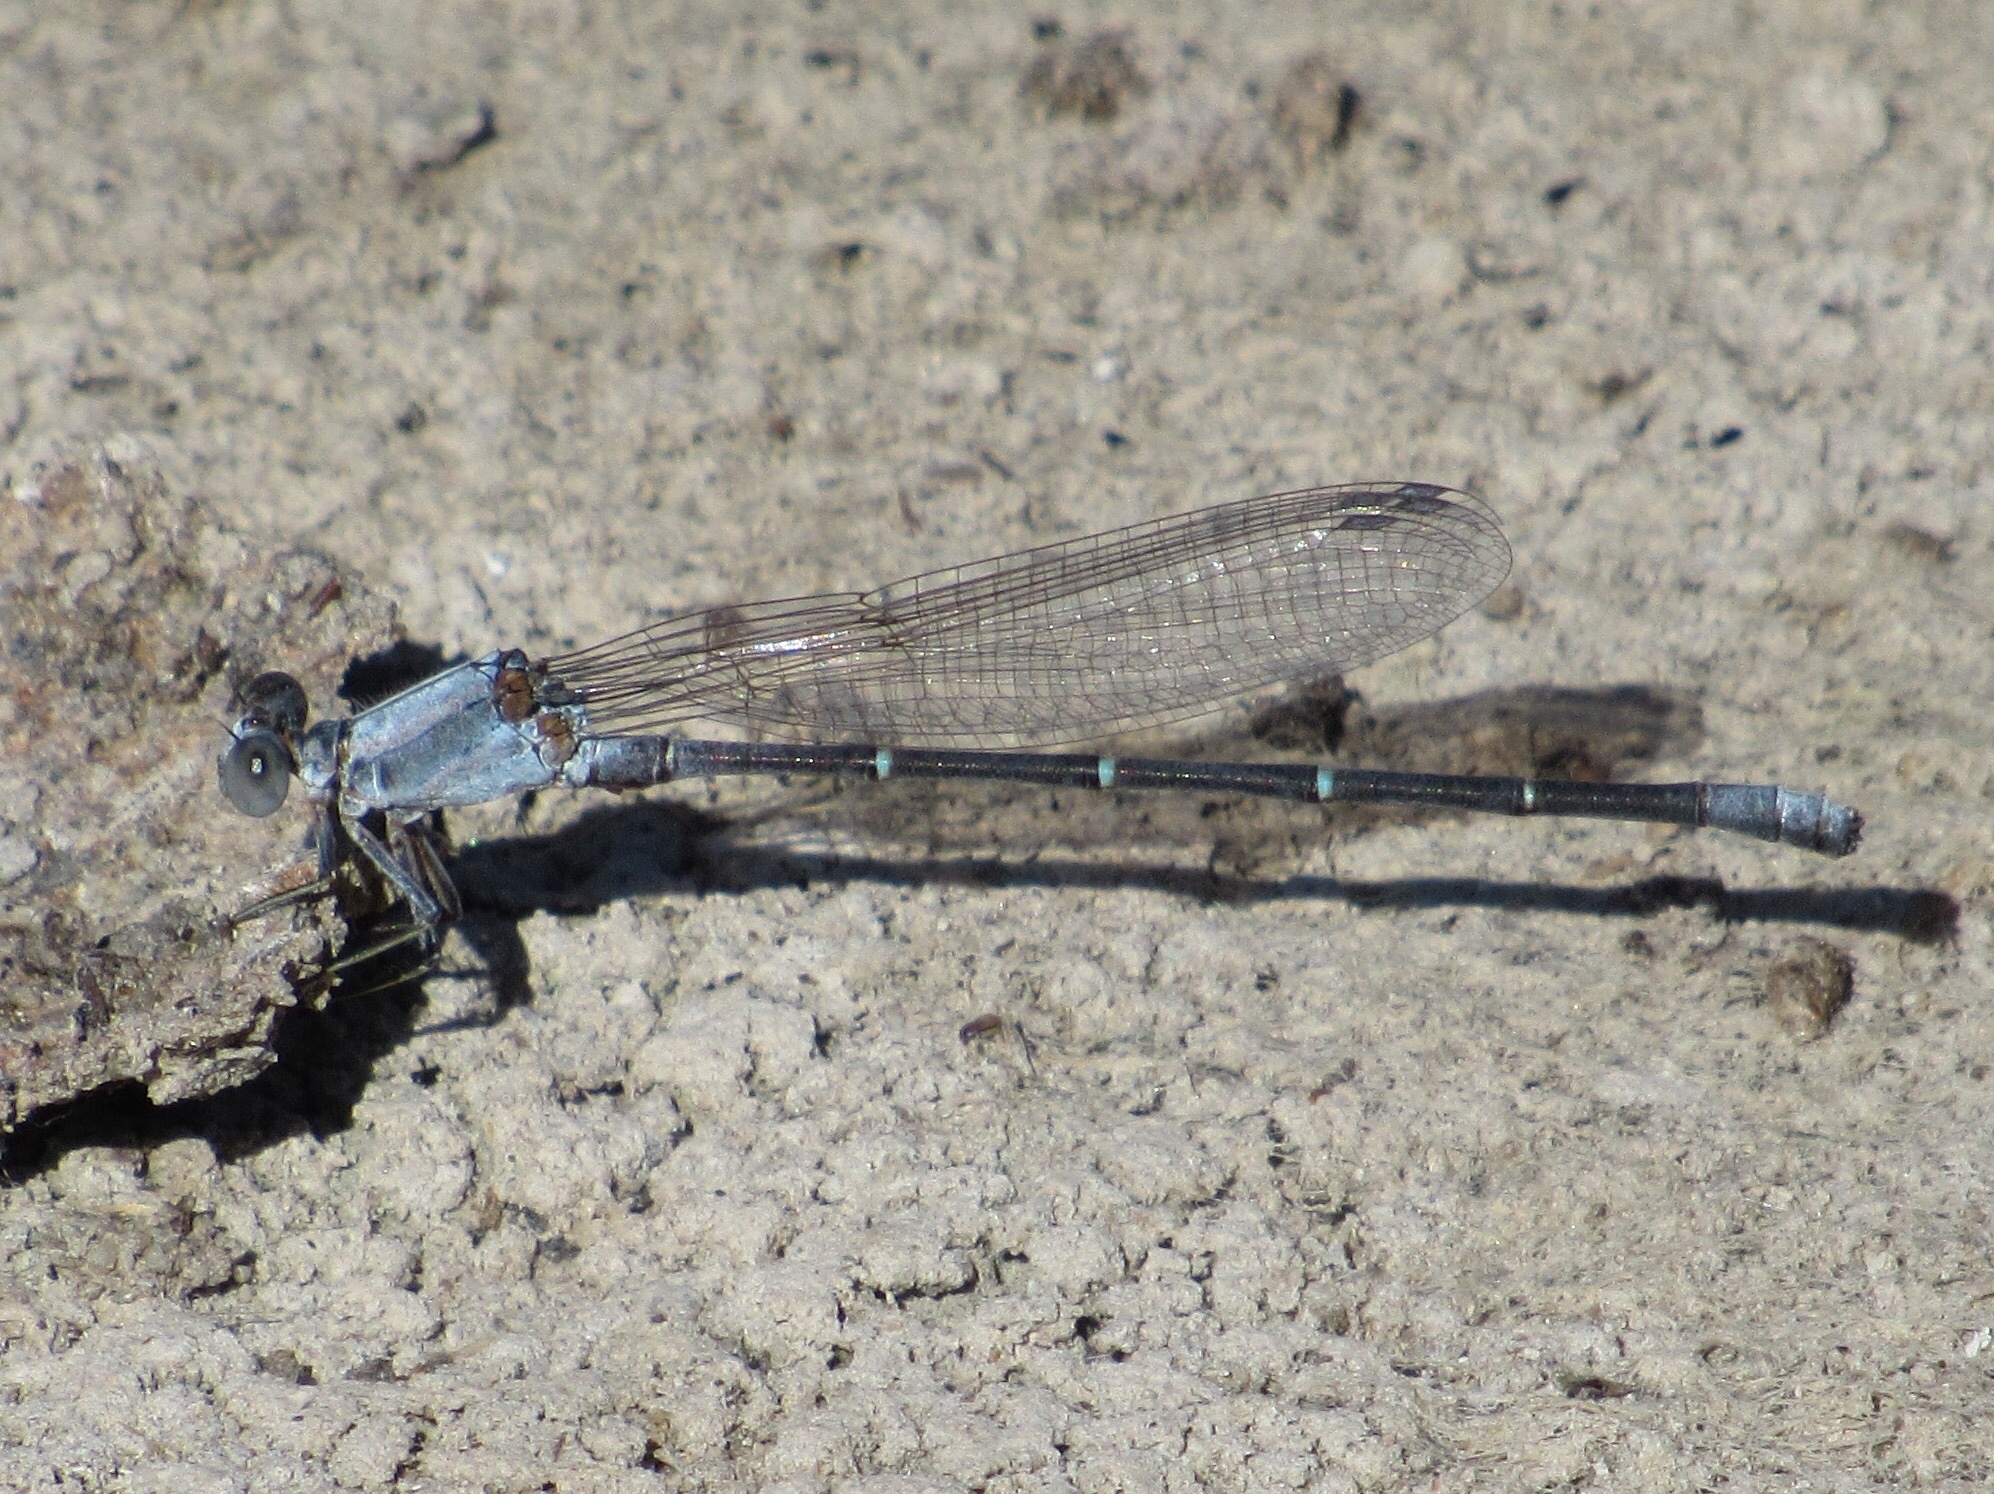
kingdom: Animalia
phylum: Arthropoda
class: Insecta
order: Odonata
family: Coenagrionidae
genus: Argia
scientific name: Argia moesta
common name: Powdered dancer
